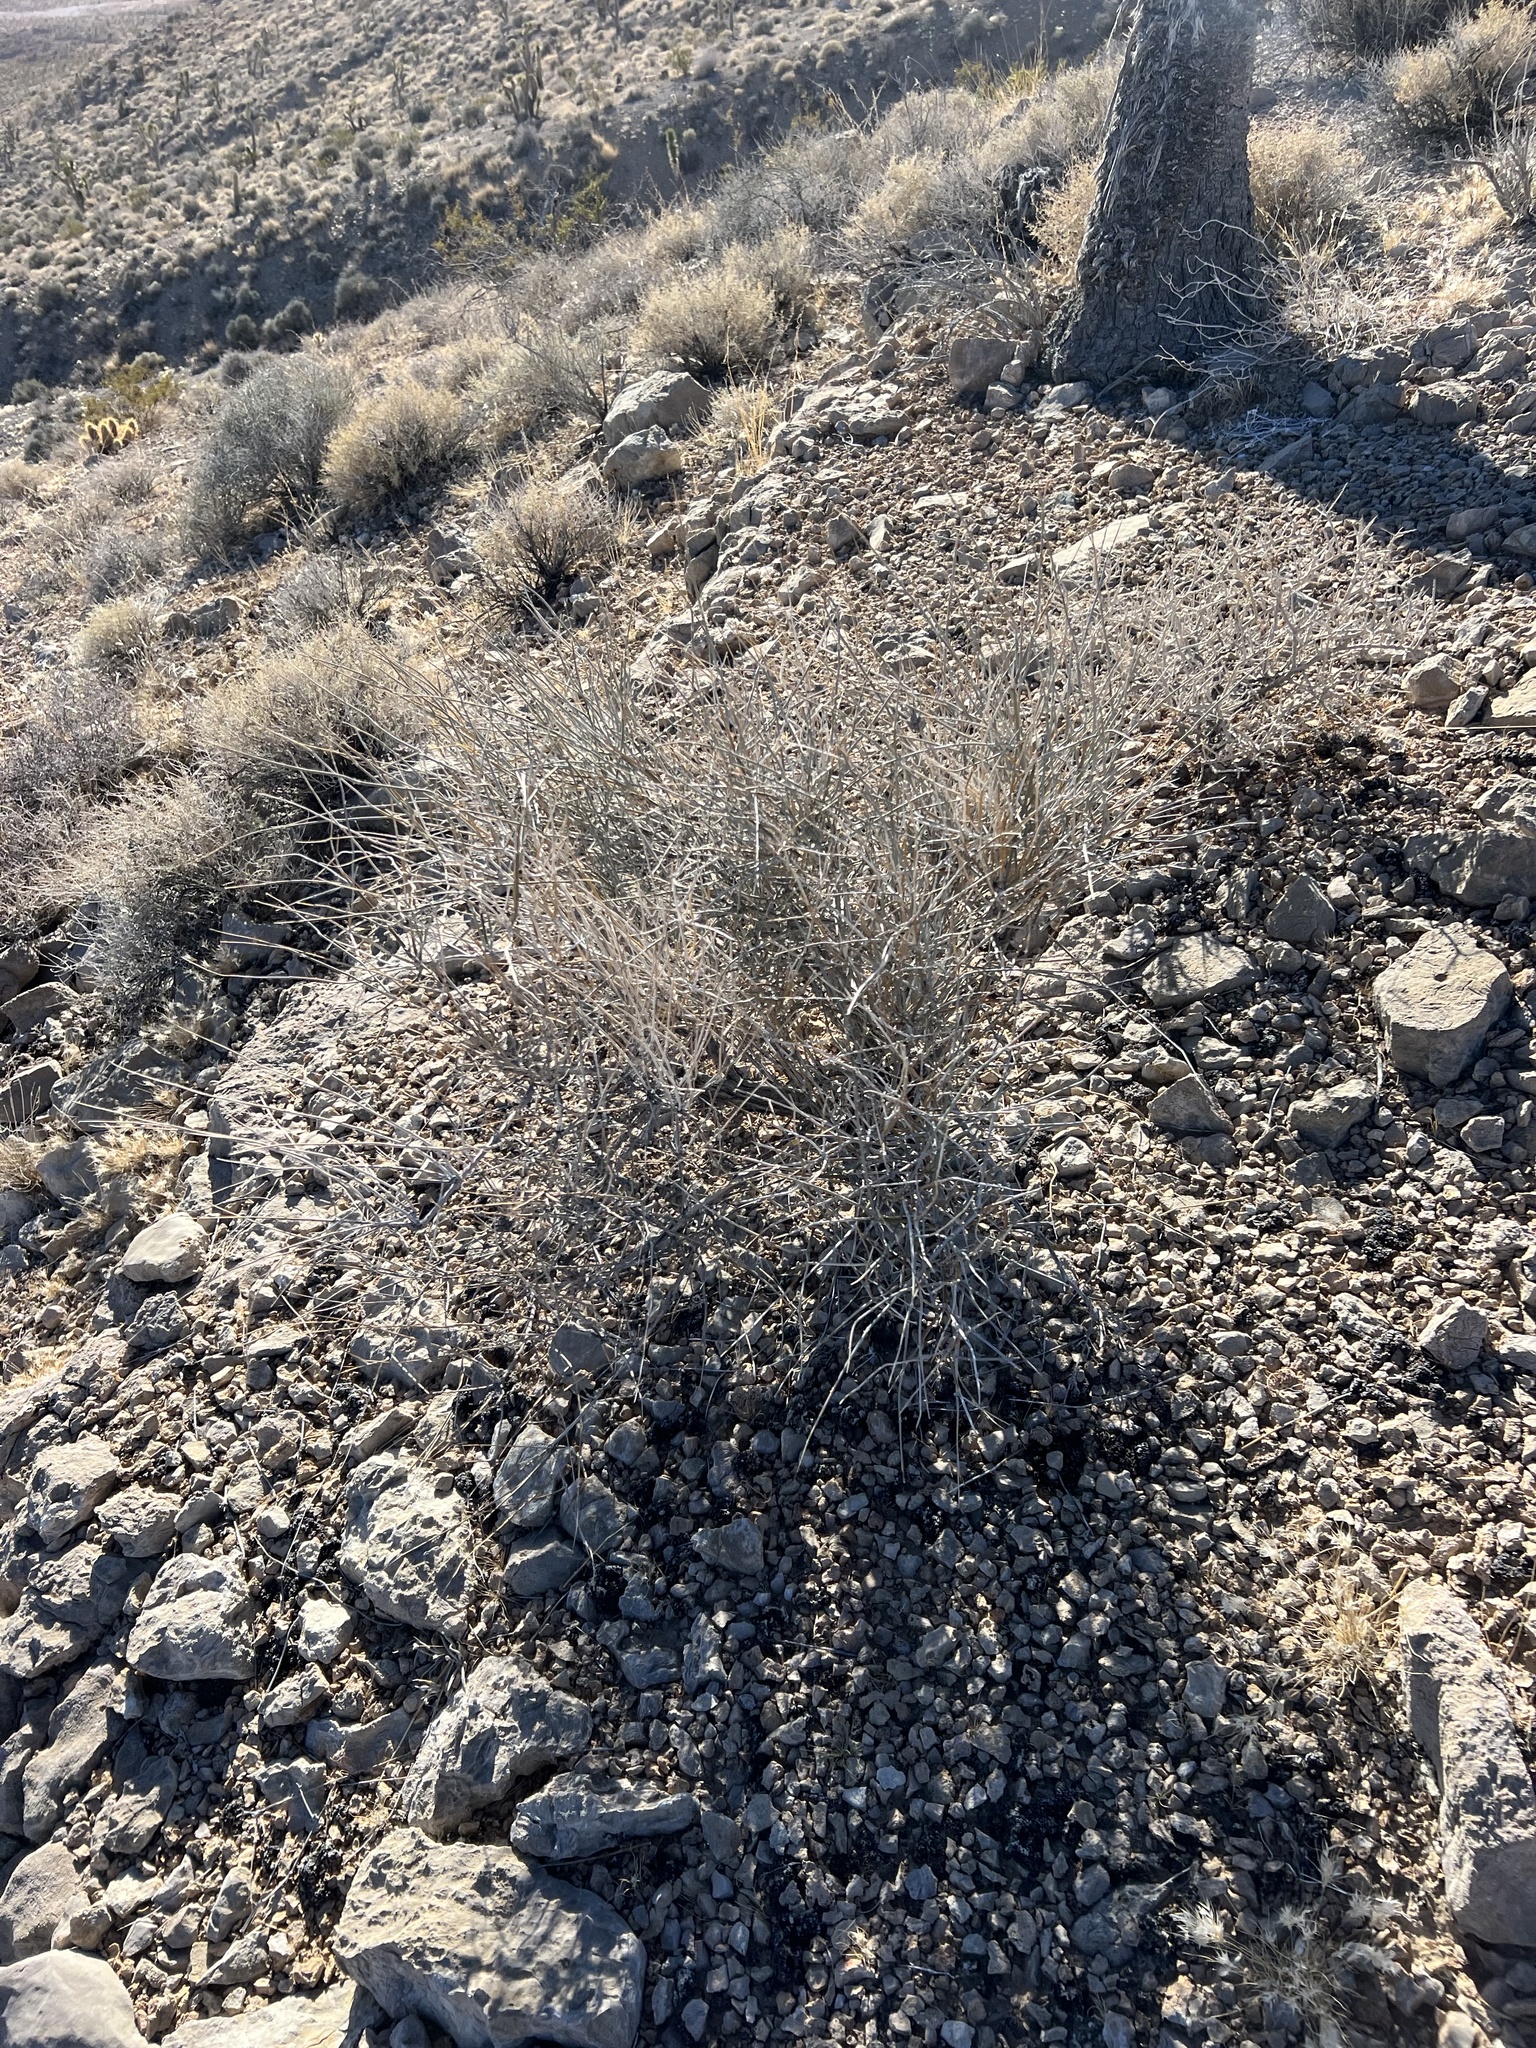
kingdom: Plantae
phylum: Tracheophyta
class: Gnetopsida
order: Ephedrales
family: Ephedraceae
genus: Ephedra
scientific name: Ephedra nevadensis
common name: Gray ephedra
